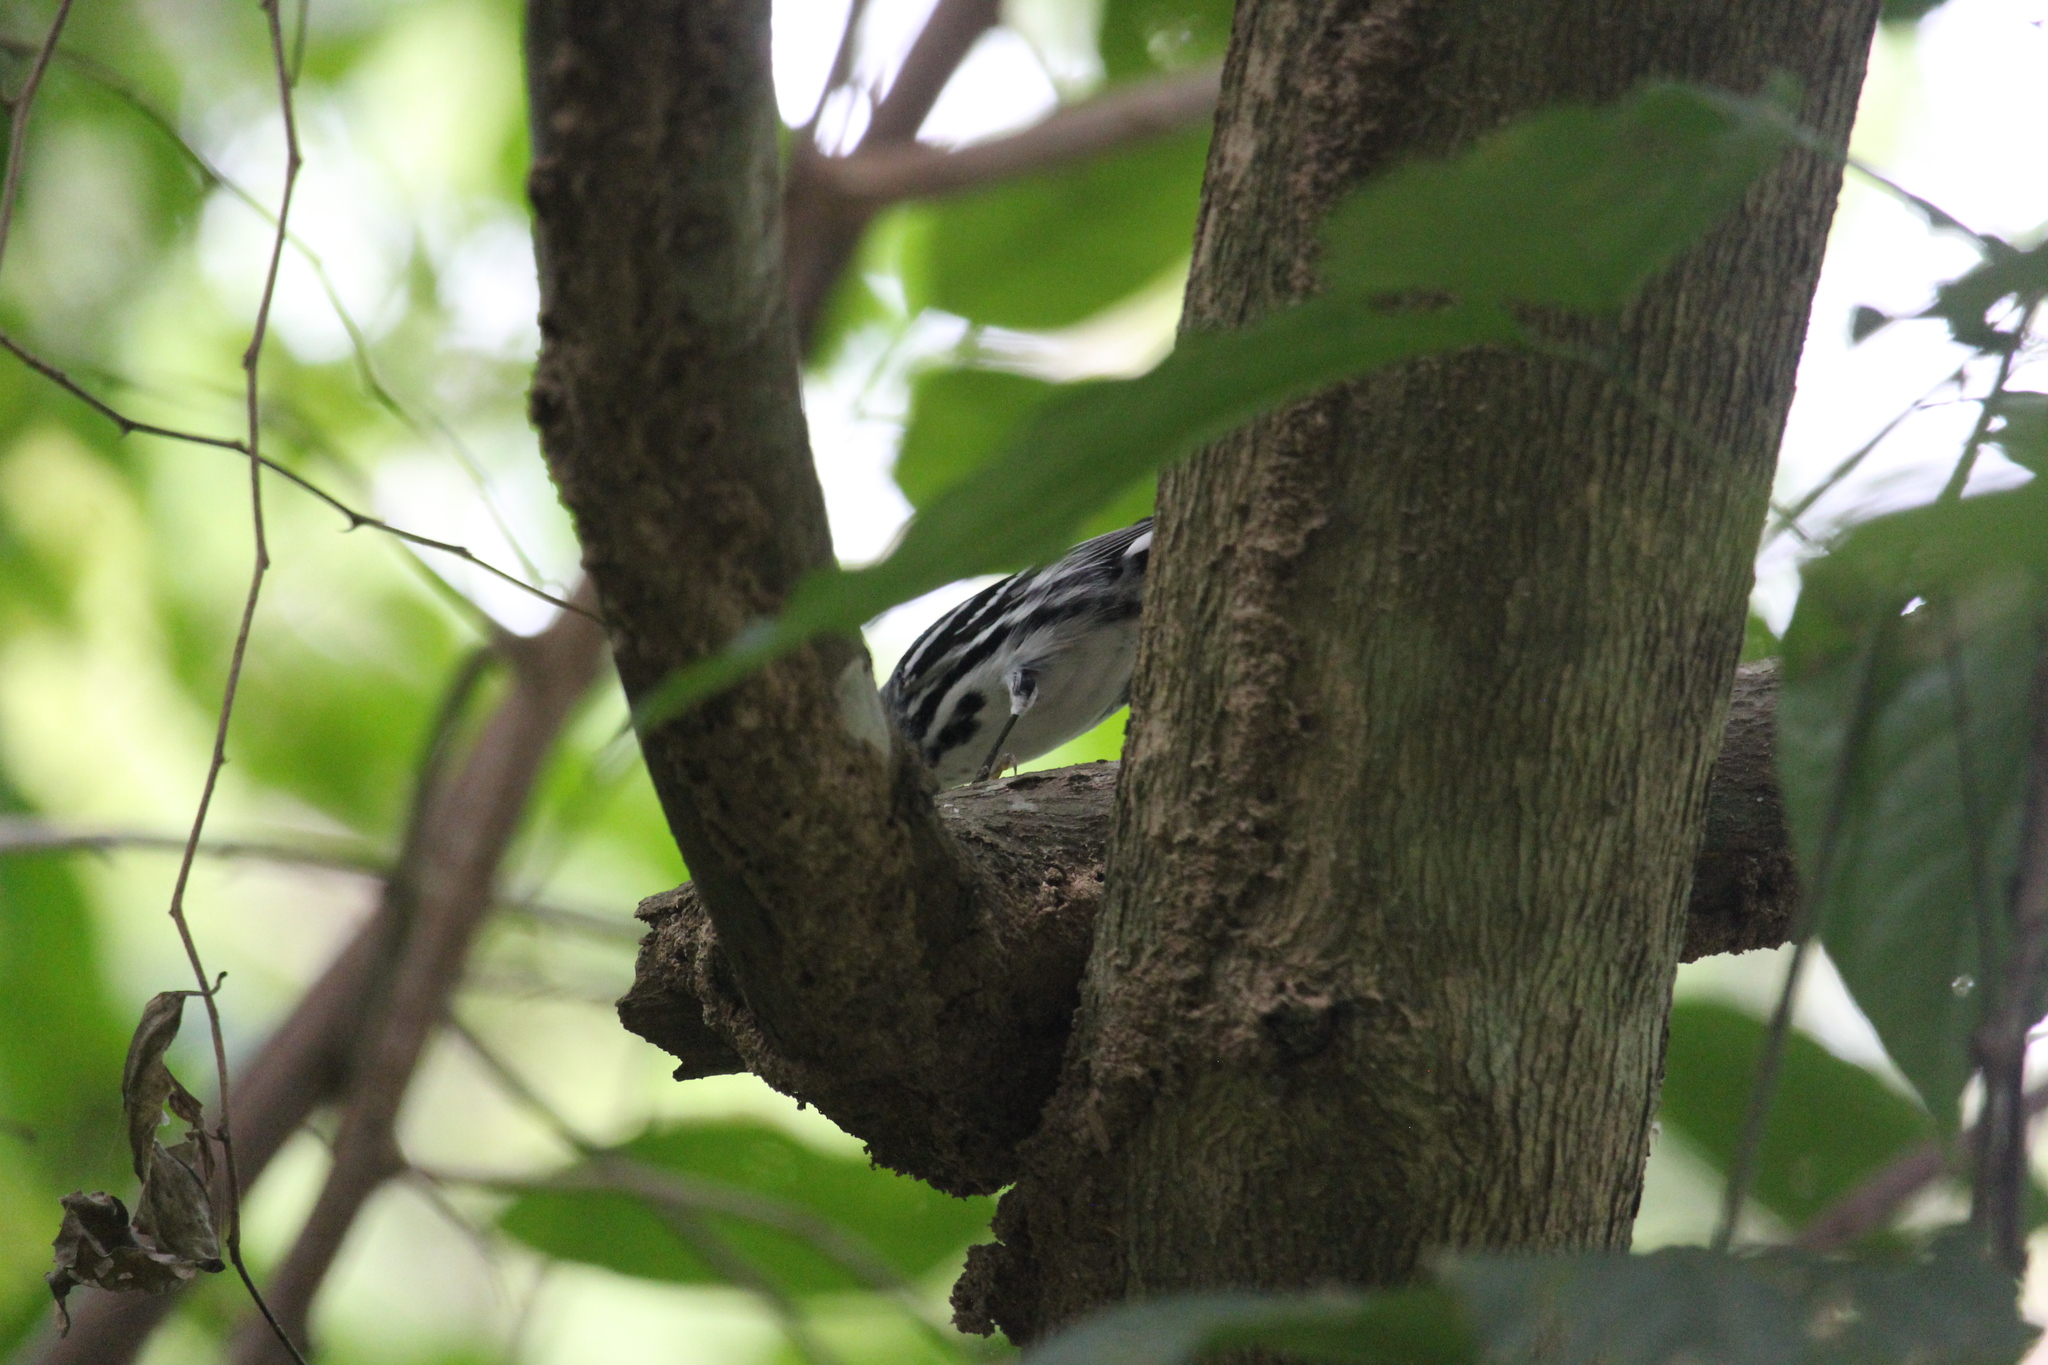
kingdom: Animalia
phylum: Chordata
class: Aves
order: Passeriformes
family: Parulidae
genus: Mniotilta
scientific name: Mniotilta varia
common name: Black-and-white warbler
